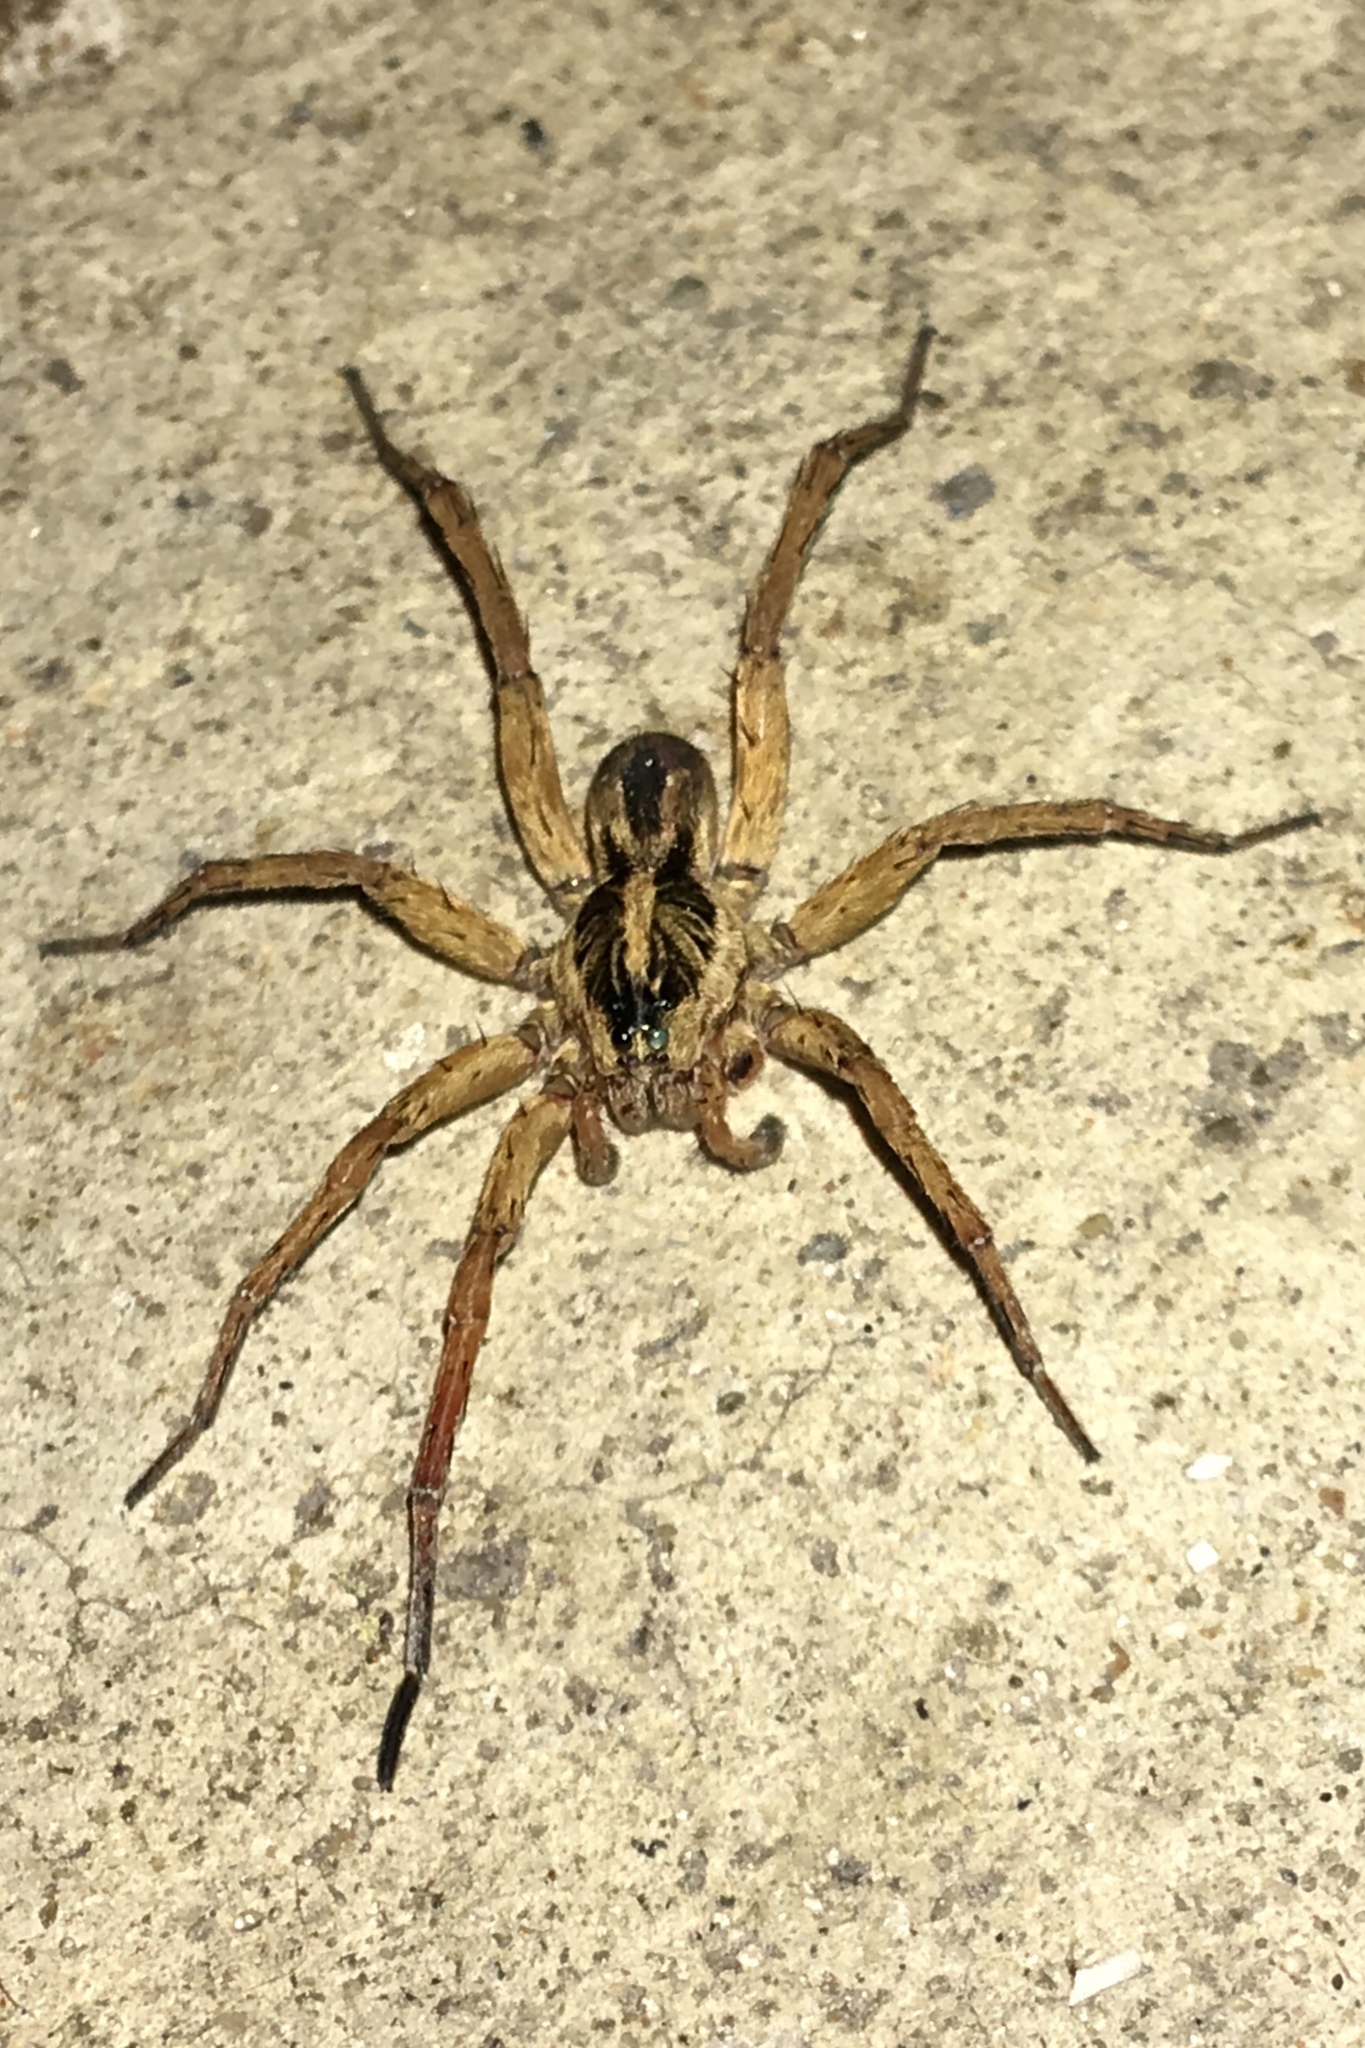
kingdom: Animalia
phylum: Arthropoda
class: Arachnida
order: Araneae
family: Lycosidae
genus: Tigrosa
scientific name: Tigrosa annexa
